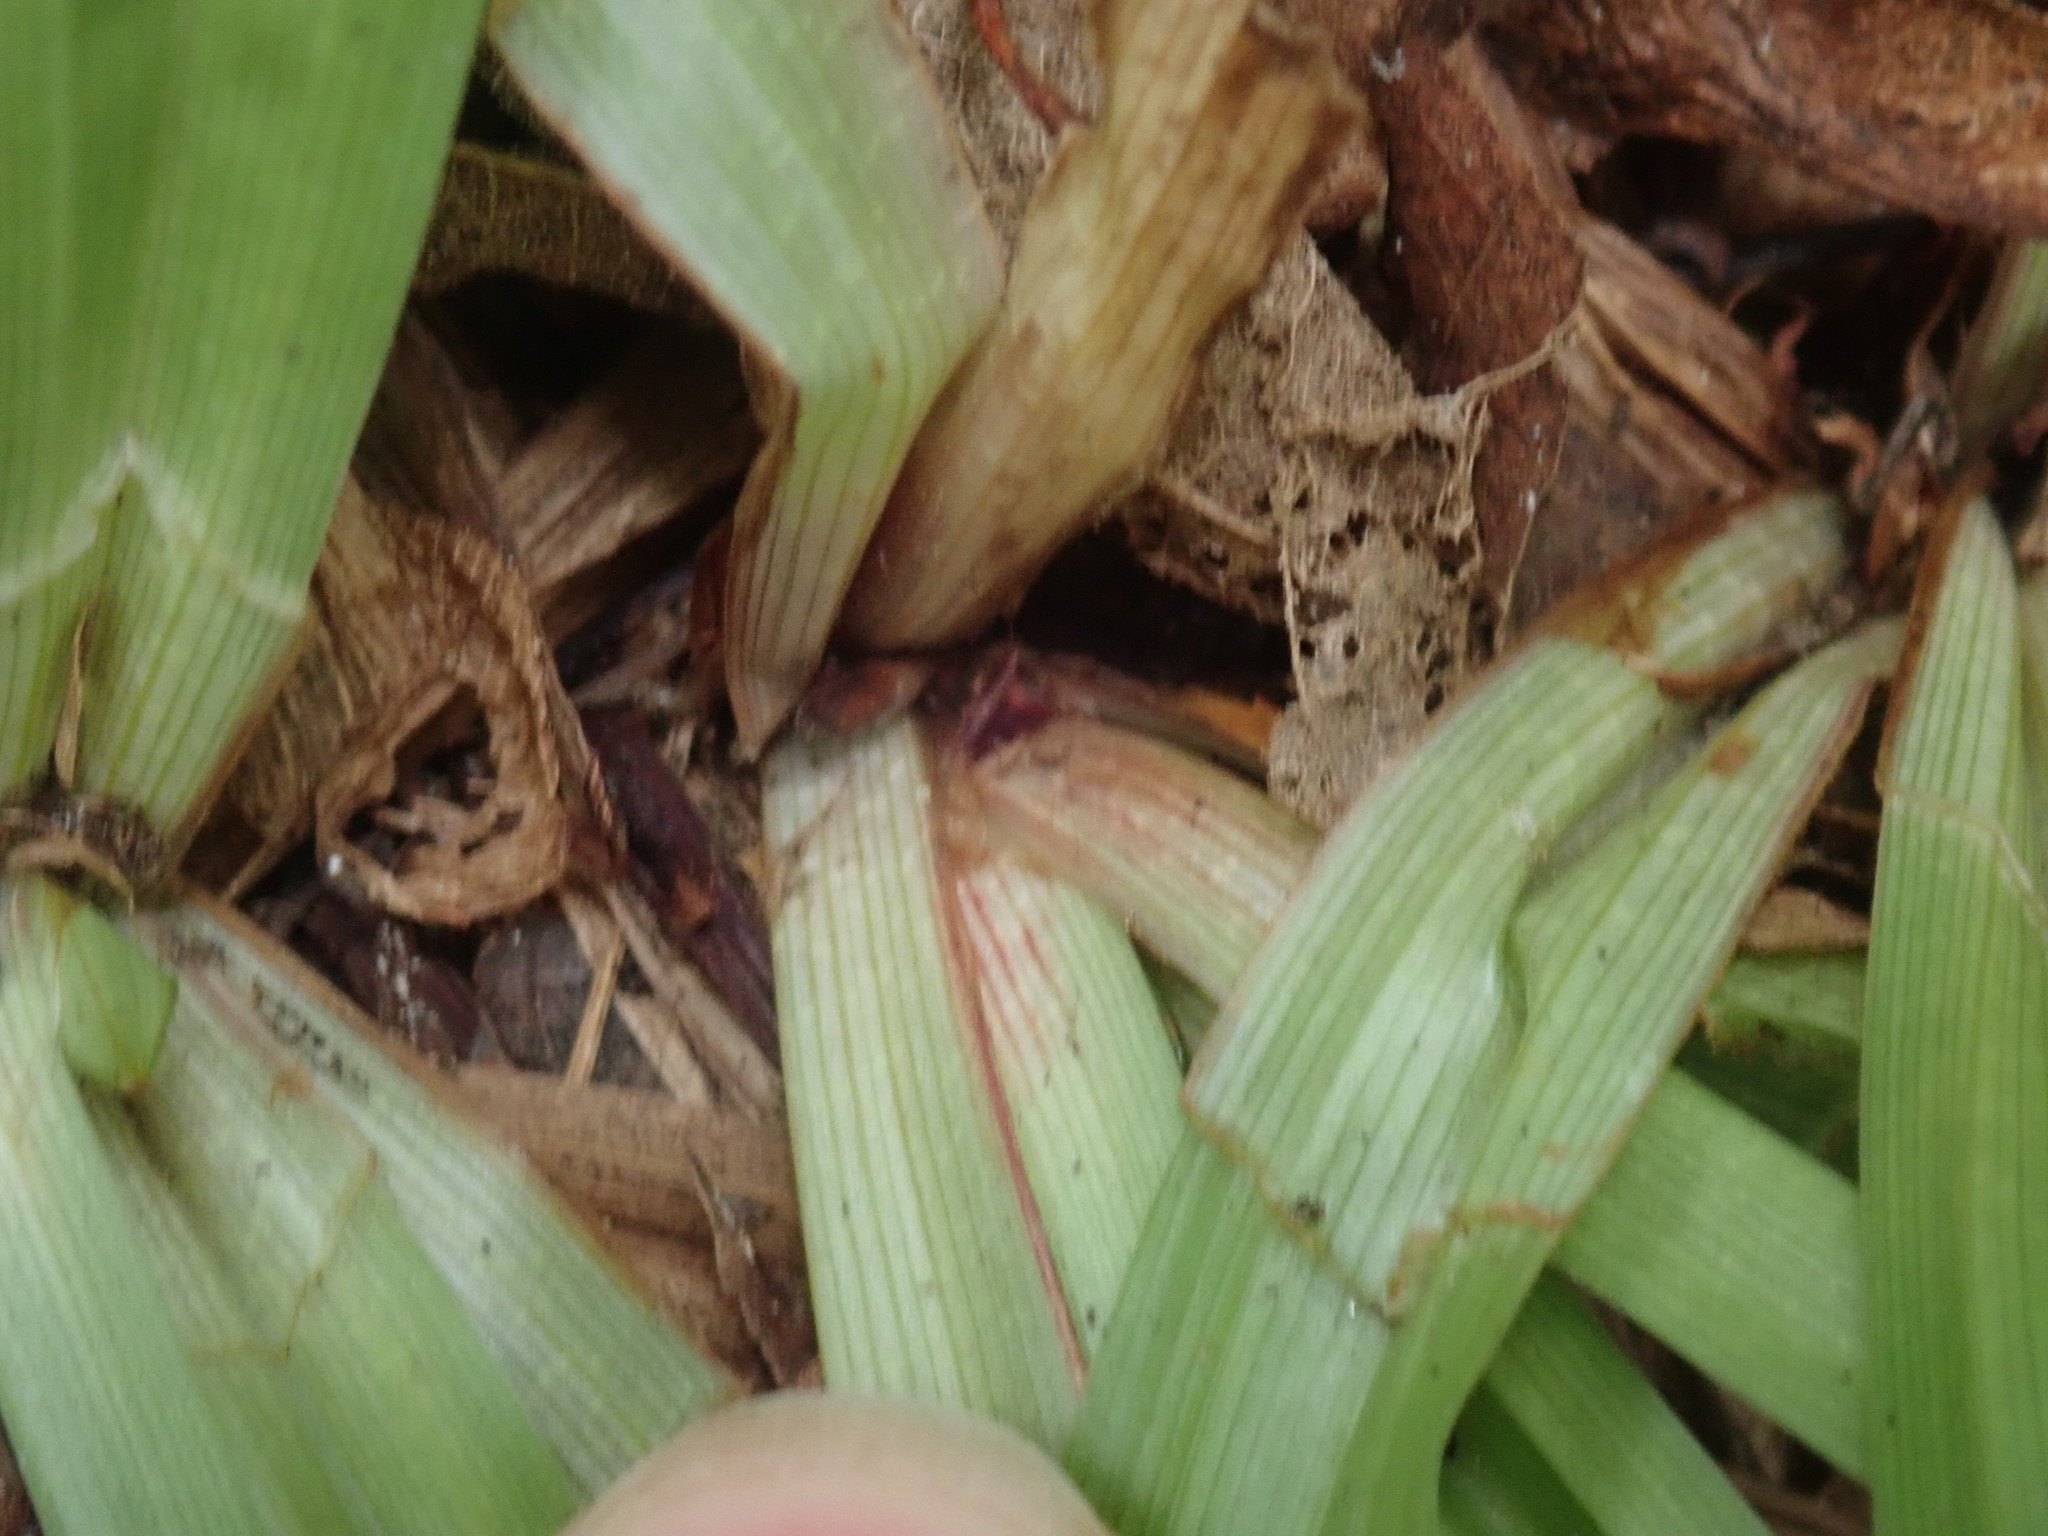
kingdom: Plantae
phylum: Tracheophyta
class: Liliopsida
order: Poales
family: Cyperaceae
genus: Carex
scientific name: Carex plantaginea
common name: Plantain-leaved sedge
